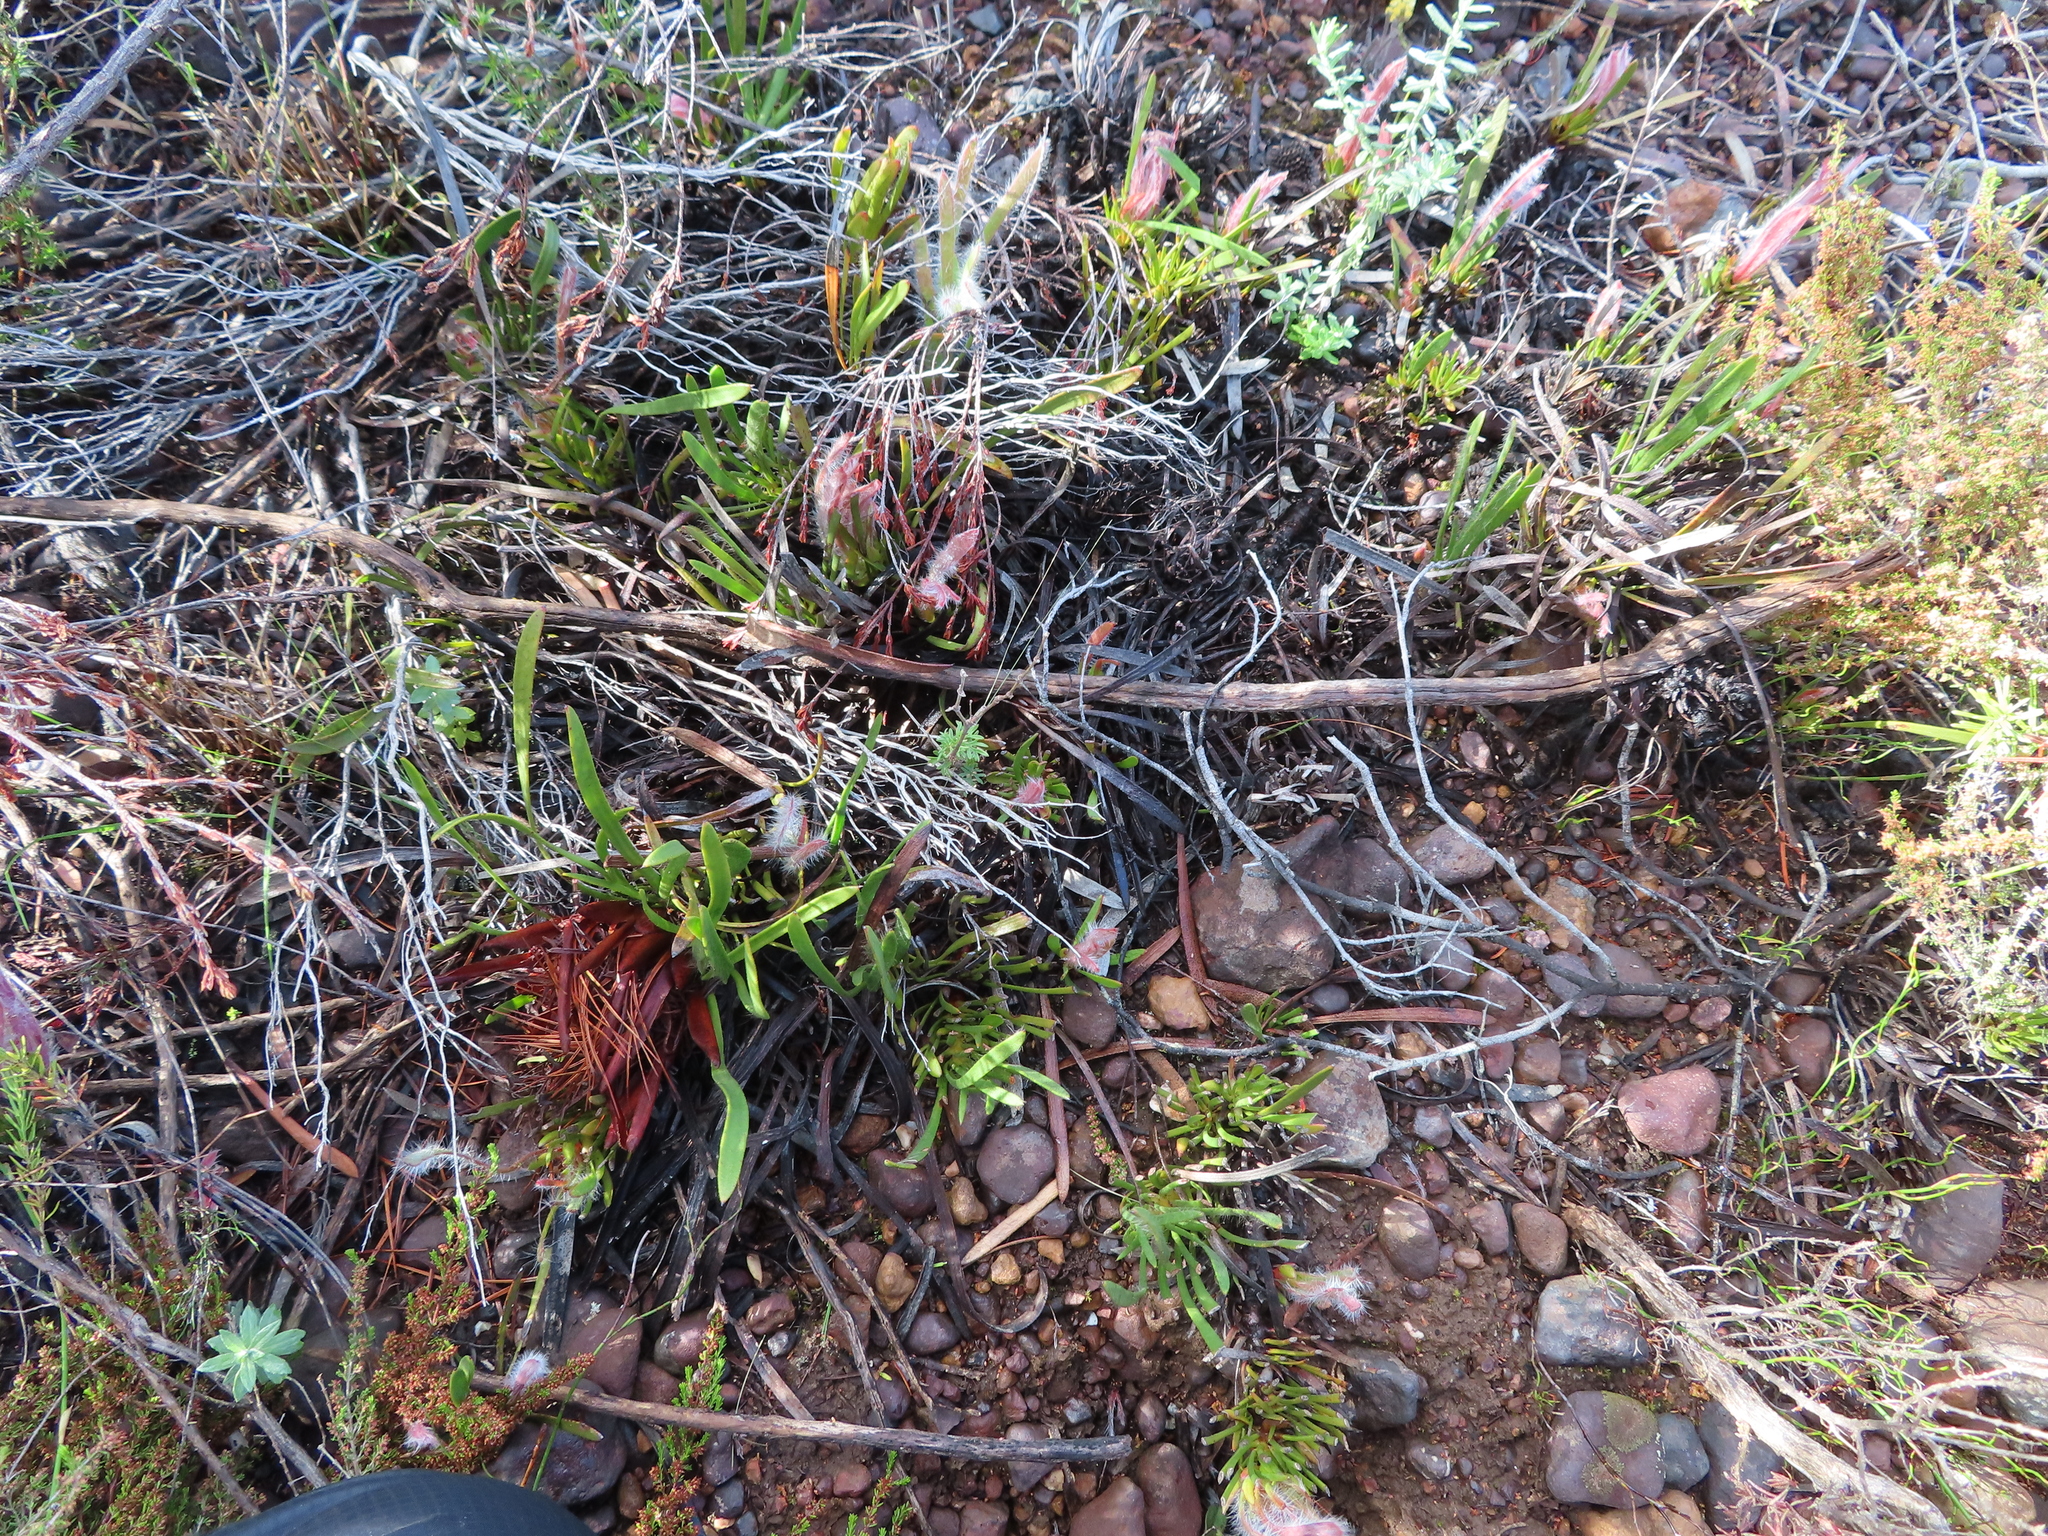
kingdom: Plantae
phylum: Tracheophyta
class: Magnoliopsida
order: Proteales
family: Proteaceae
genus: Protea
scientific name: Protea aspera
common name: Rough-leaf sugarbush
